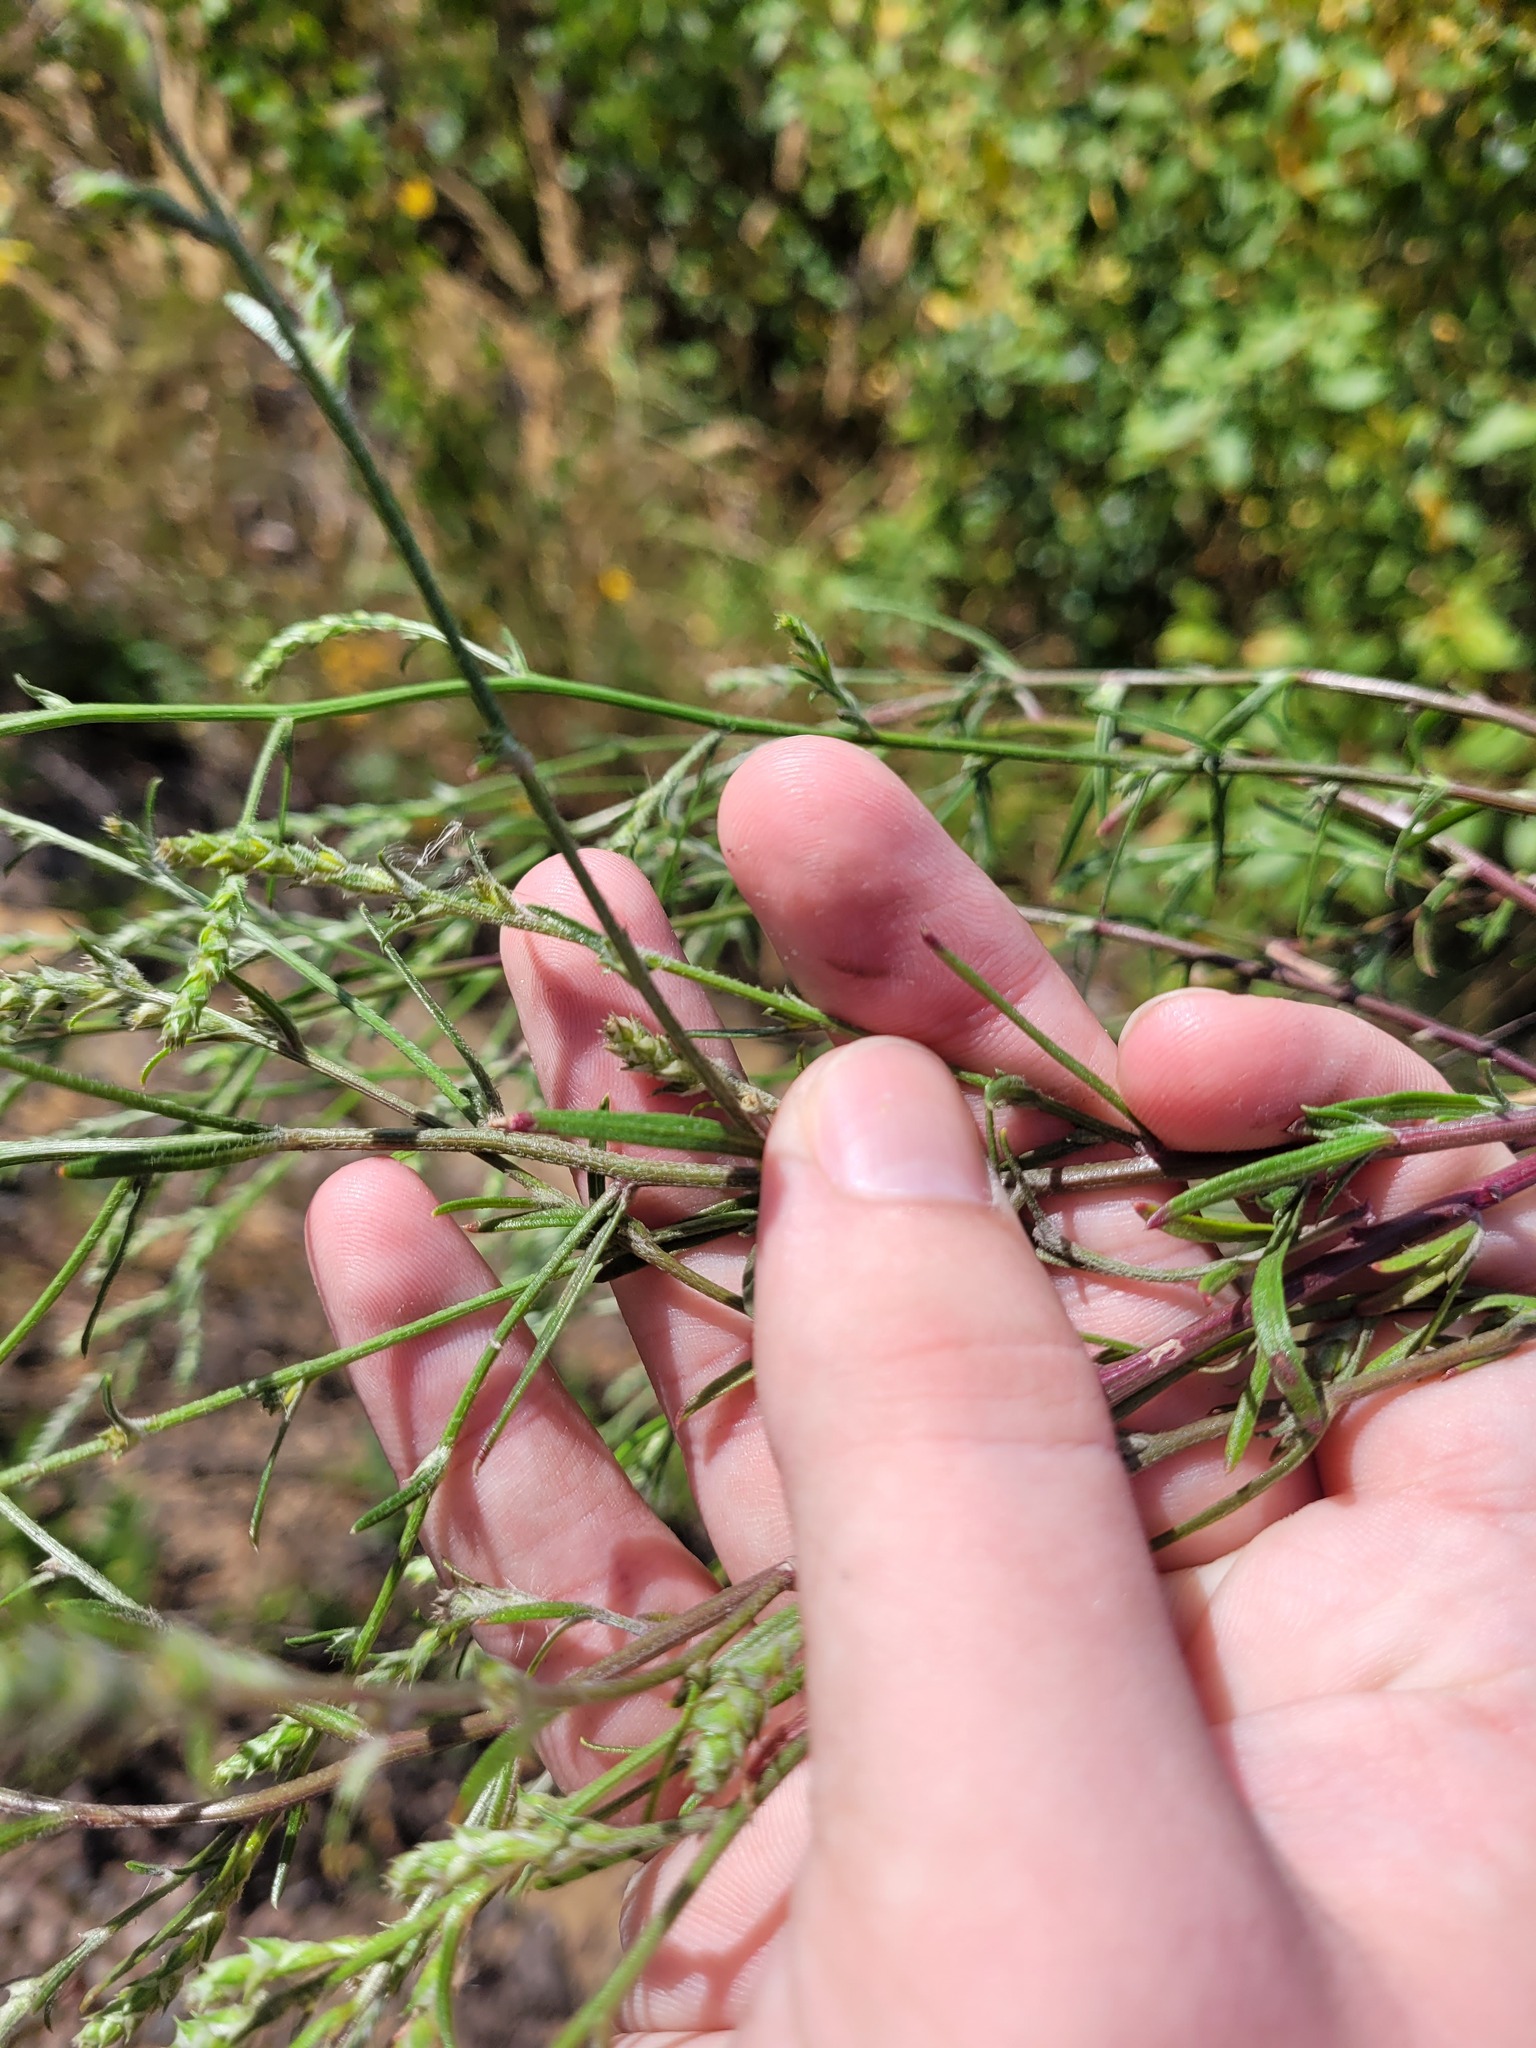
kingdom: Plantae
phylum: Tracheophyta
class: Magnoliopsida
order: Caryophyllales
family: Amaranthaceae
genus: Corispermum
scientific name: Corispermum hyssopifolium
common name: Bugseed
